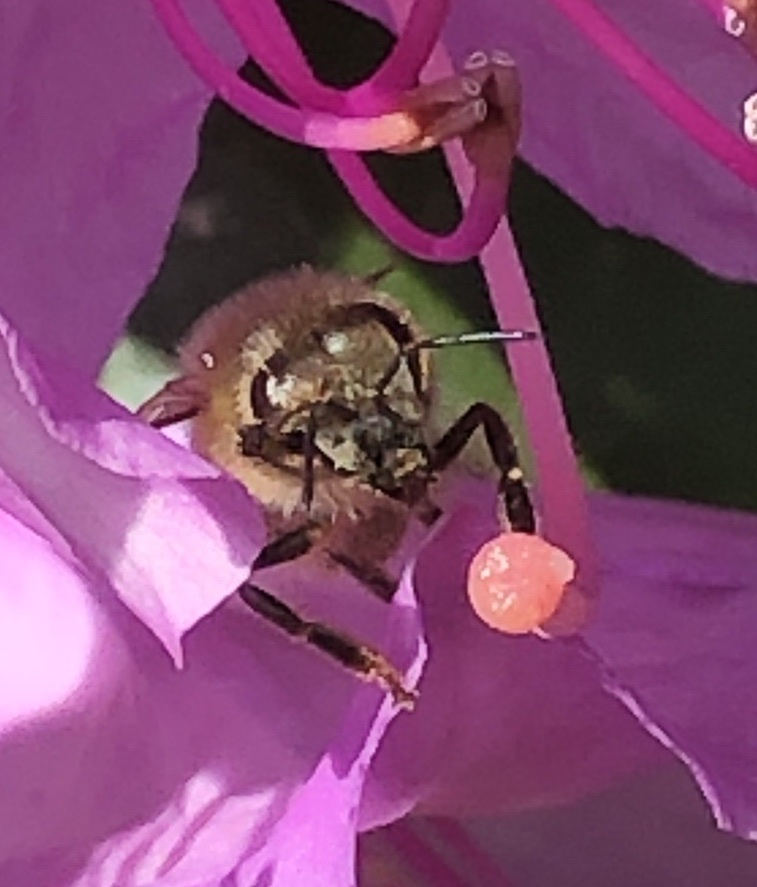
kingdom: Animalia
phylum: Arthropoda
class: Insecta
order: Hymenoptera
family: Apidae
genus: Apis
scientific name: Apis mellifera
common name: Honey bee
